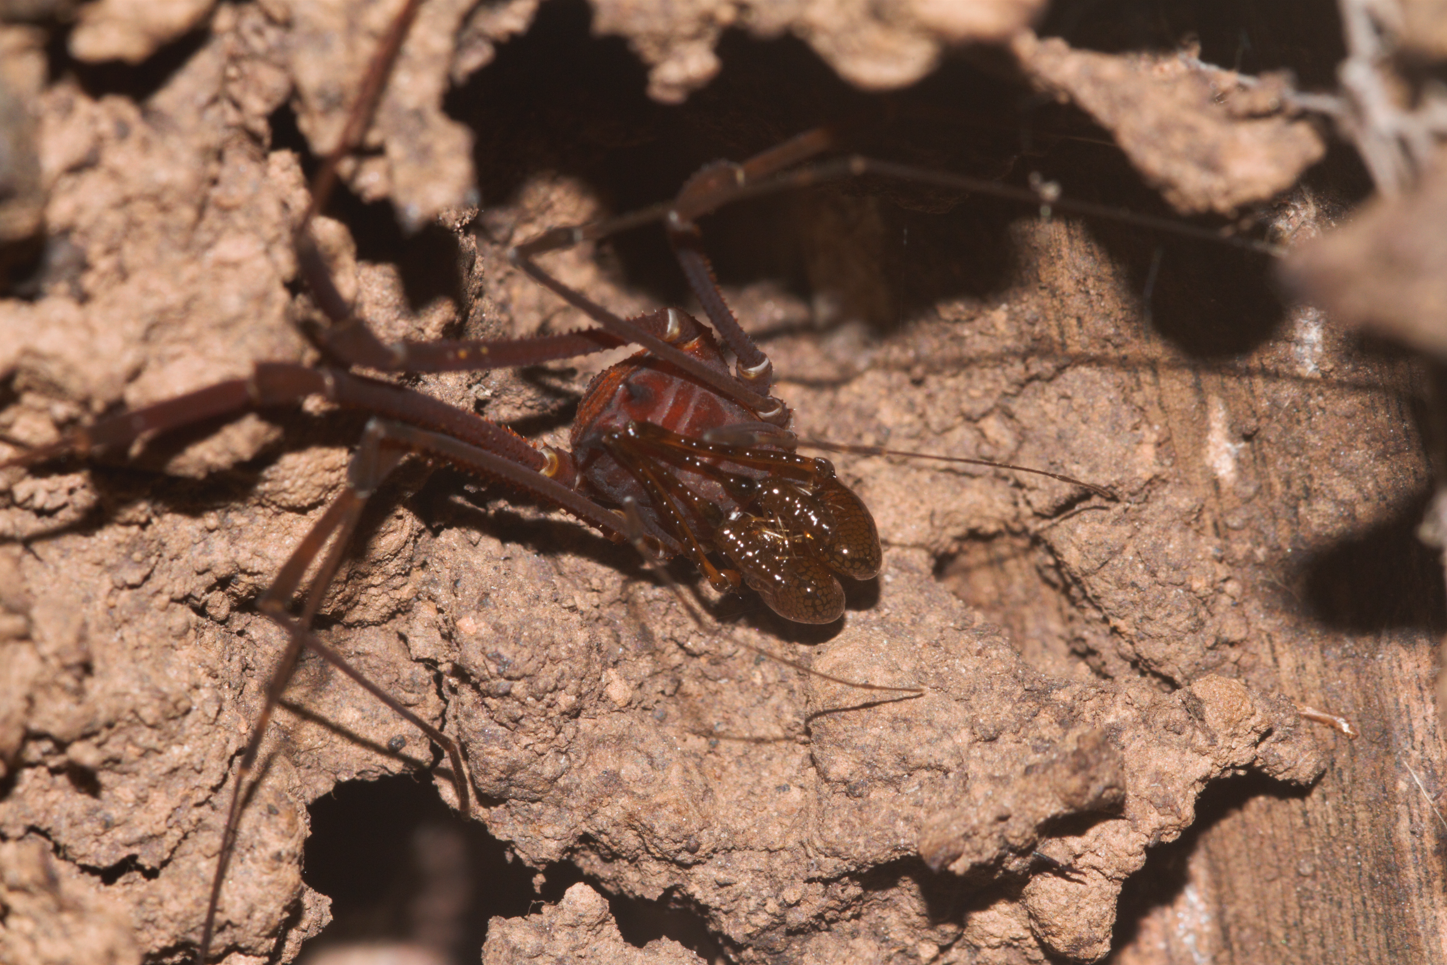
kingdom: Animalia
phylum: Arthropoda
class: Arachnida
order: Opiliones
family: Stygnidae
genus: Protimesius
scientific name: Protimesius gracilis
